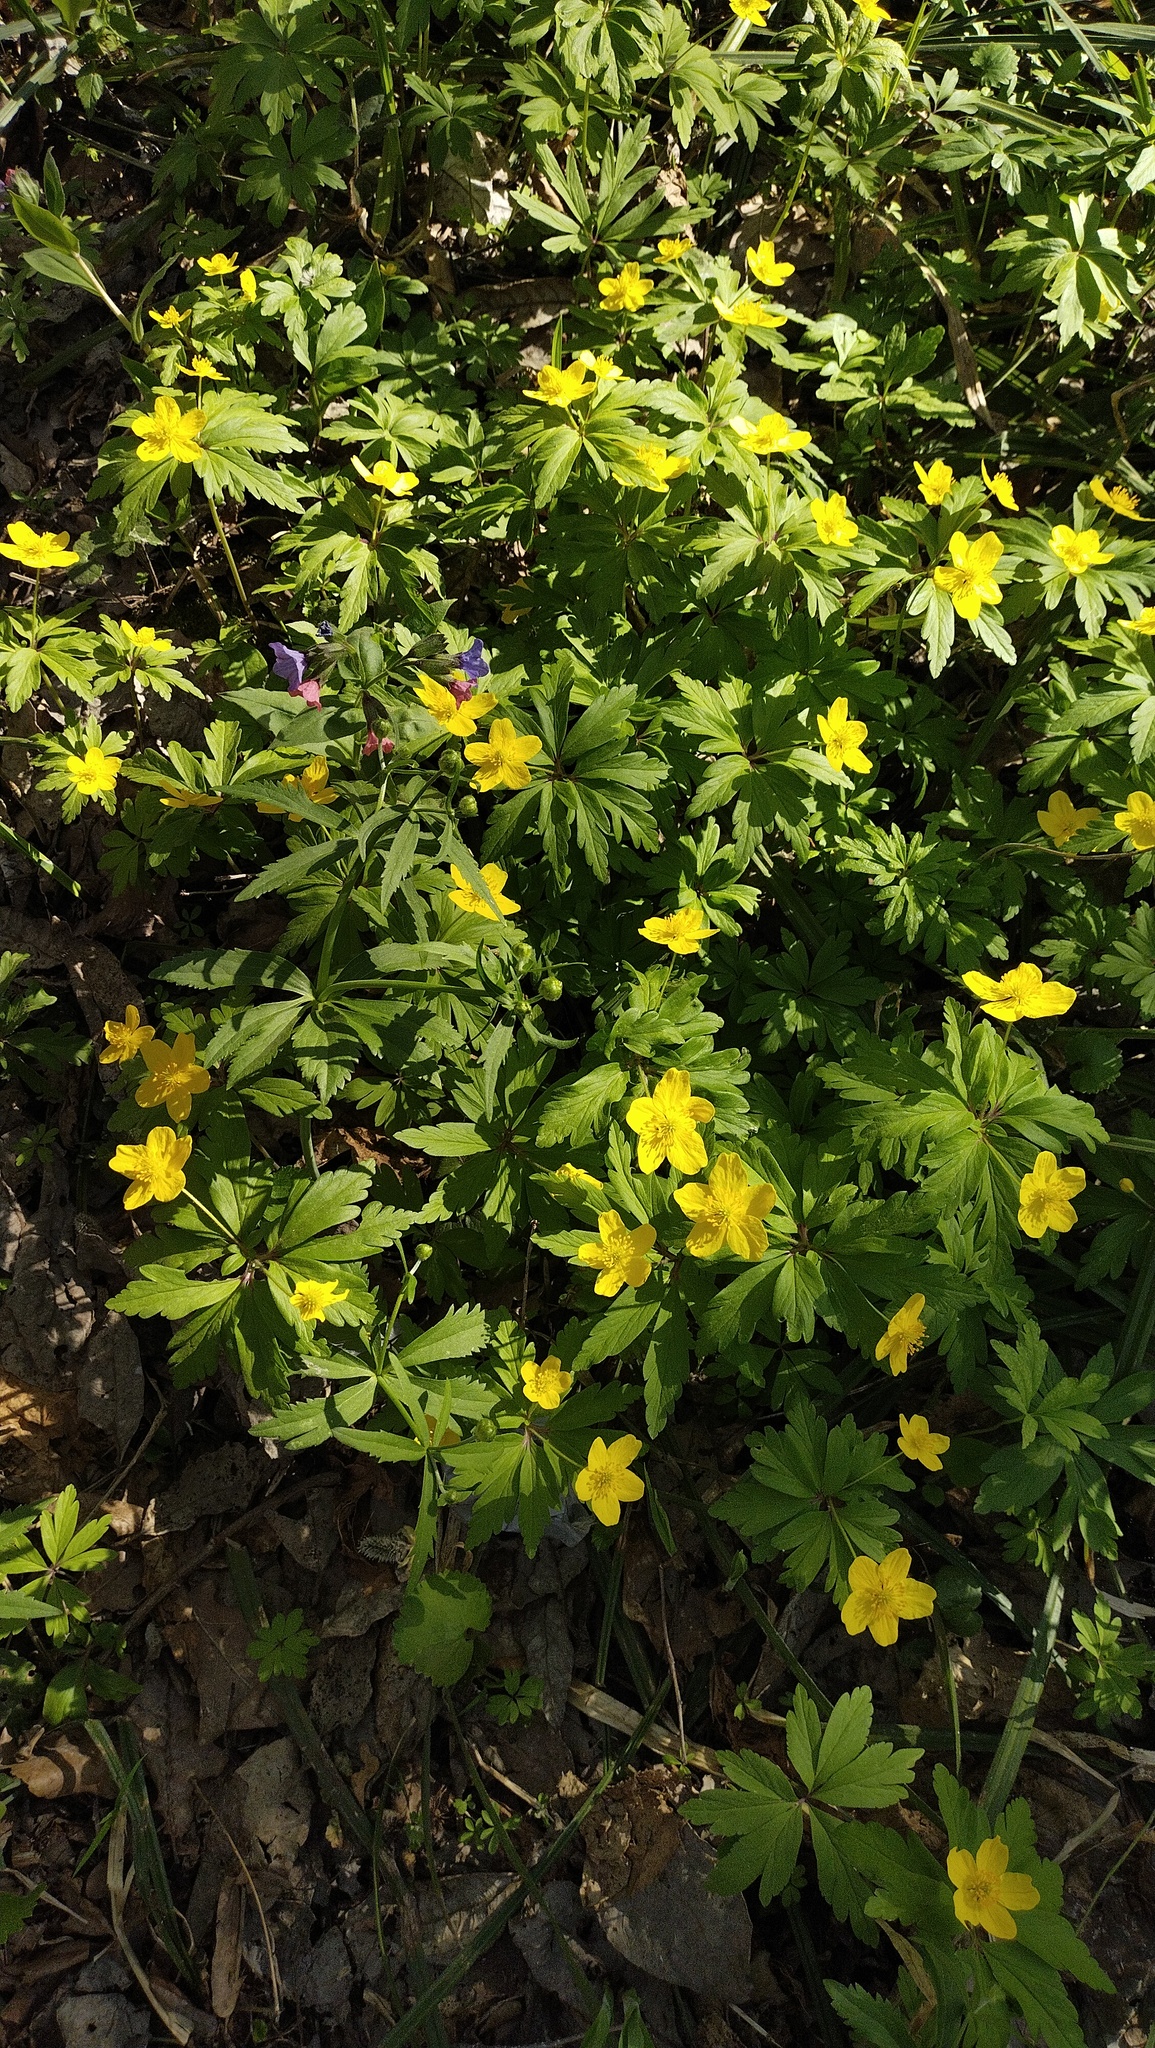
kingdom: Plantae
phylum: Tracheophyta
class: Magnoliopsida
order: Ranunculales
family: Ranunculaceae
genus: Anemone
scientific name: Anemone ranunculoides
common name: Yellow anemone
